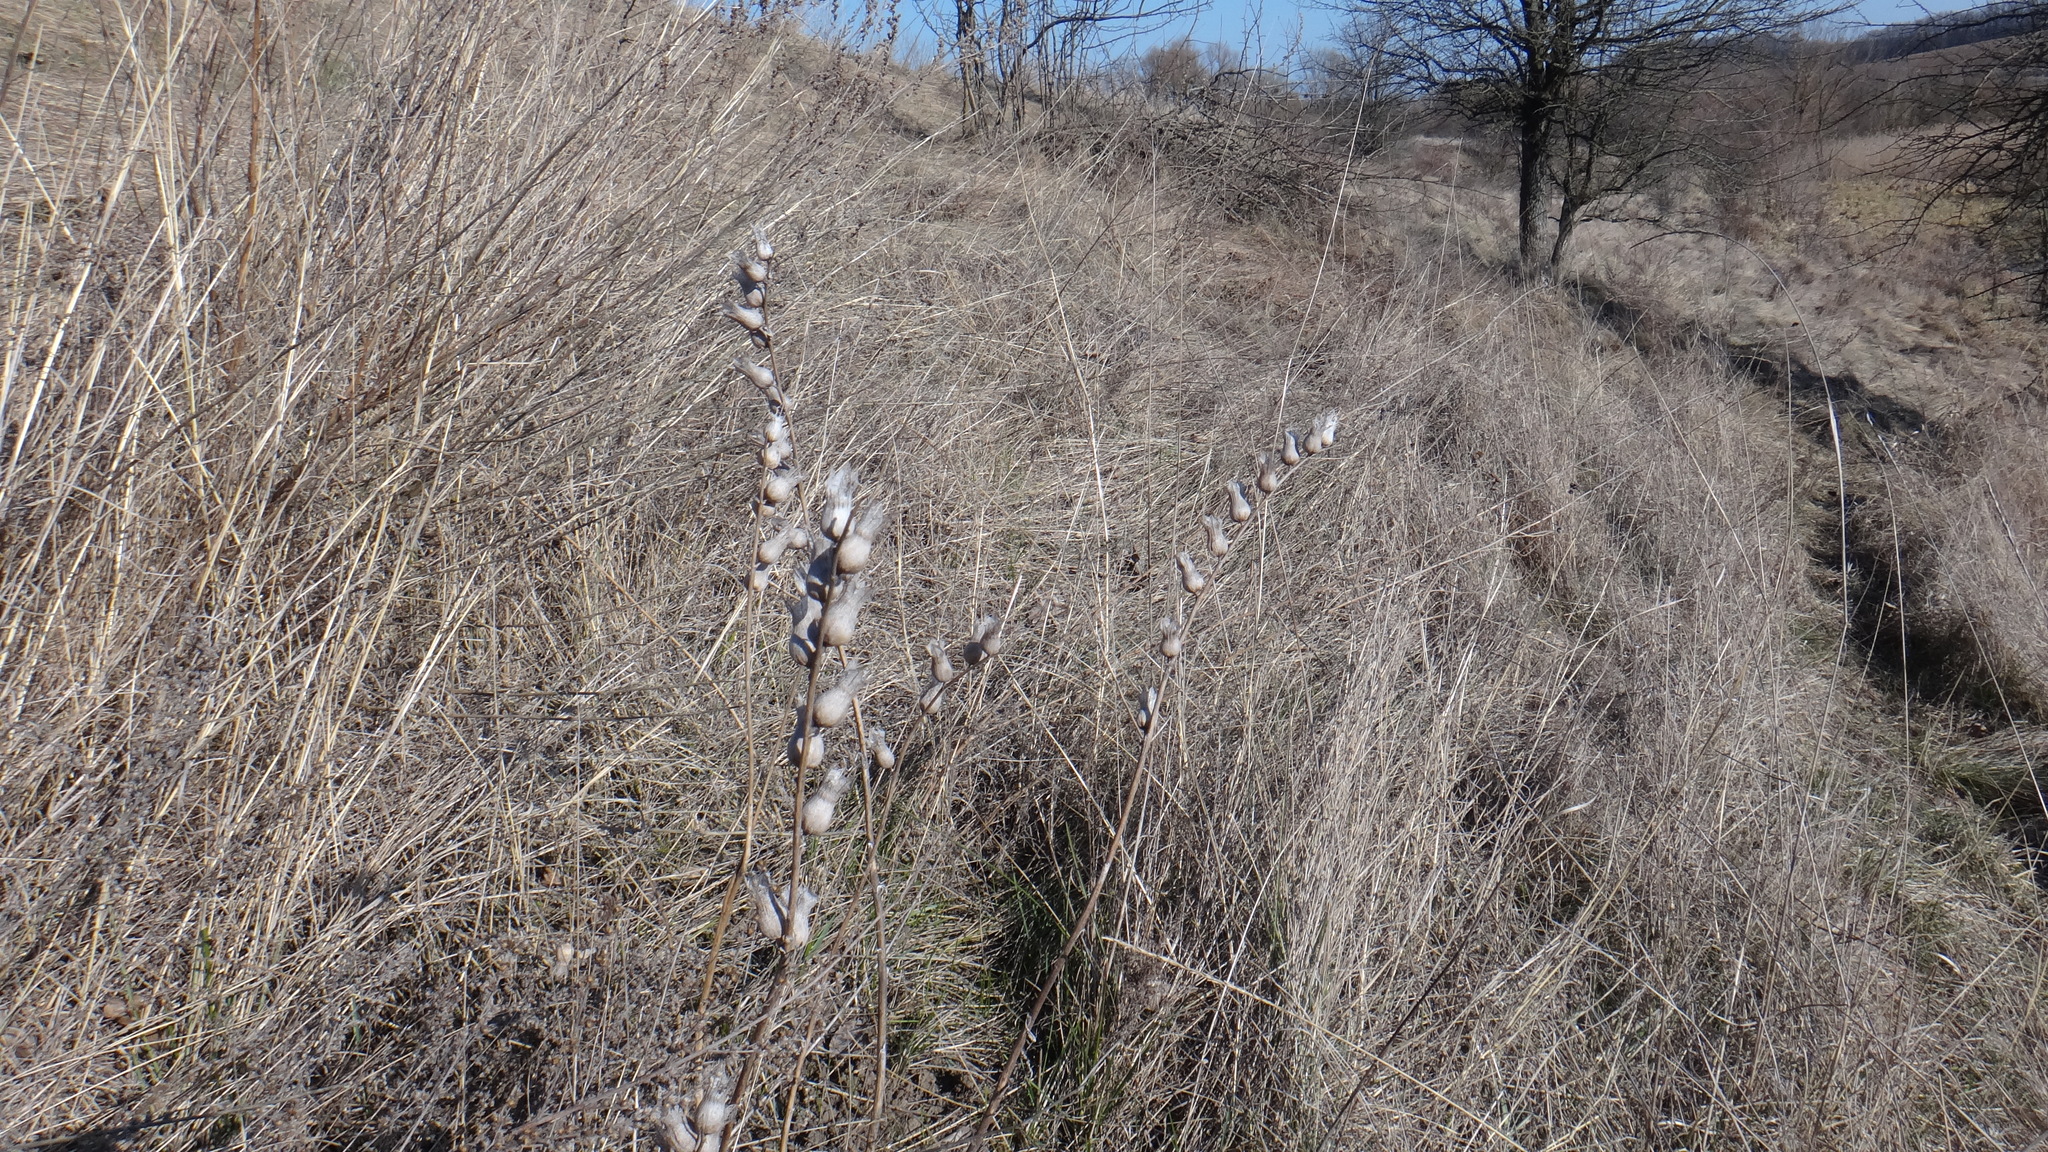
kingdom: Plantae
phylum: Tracheophyta
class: Magnoliopsida
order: Solanales
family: Solanaceae
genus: Hyoscyamus
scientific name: Hyoscyamus niger
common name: Henbane
